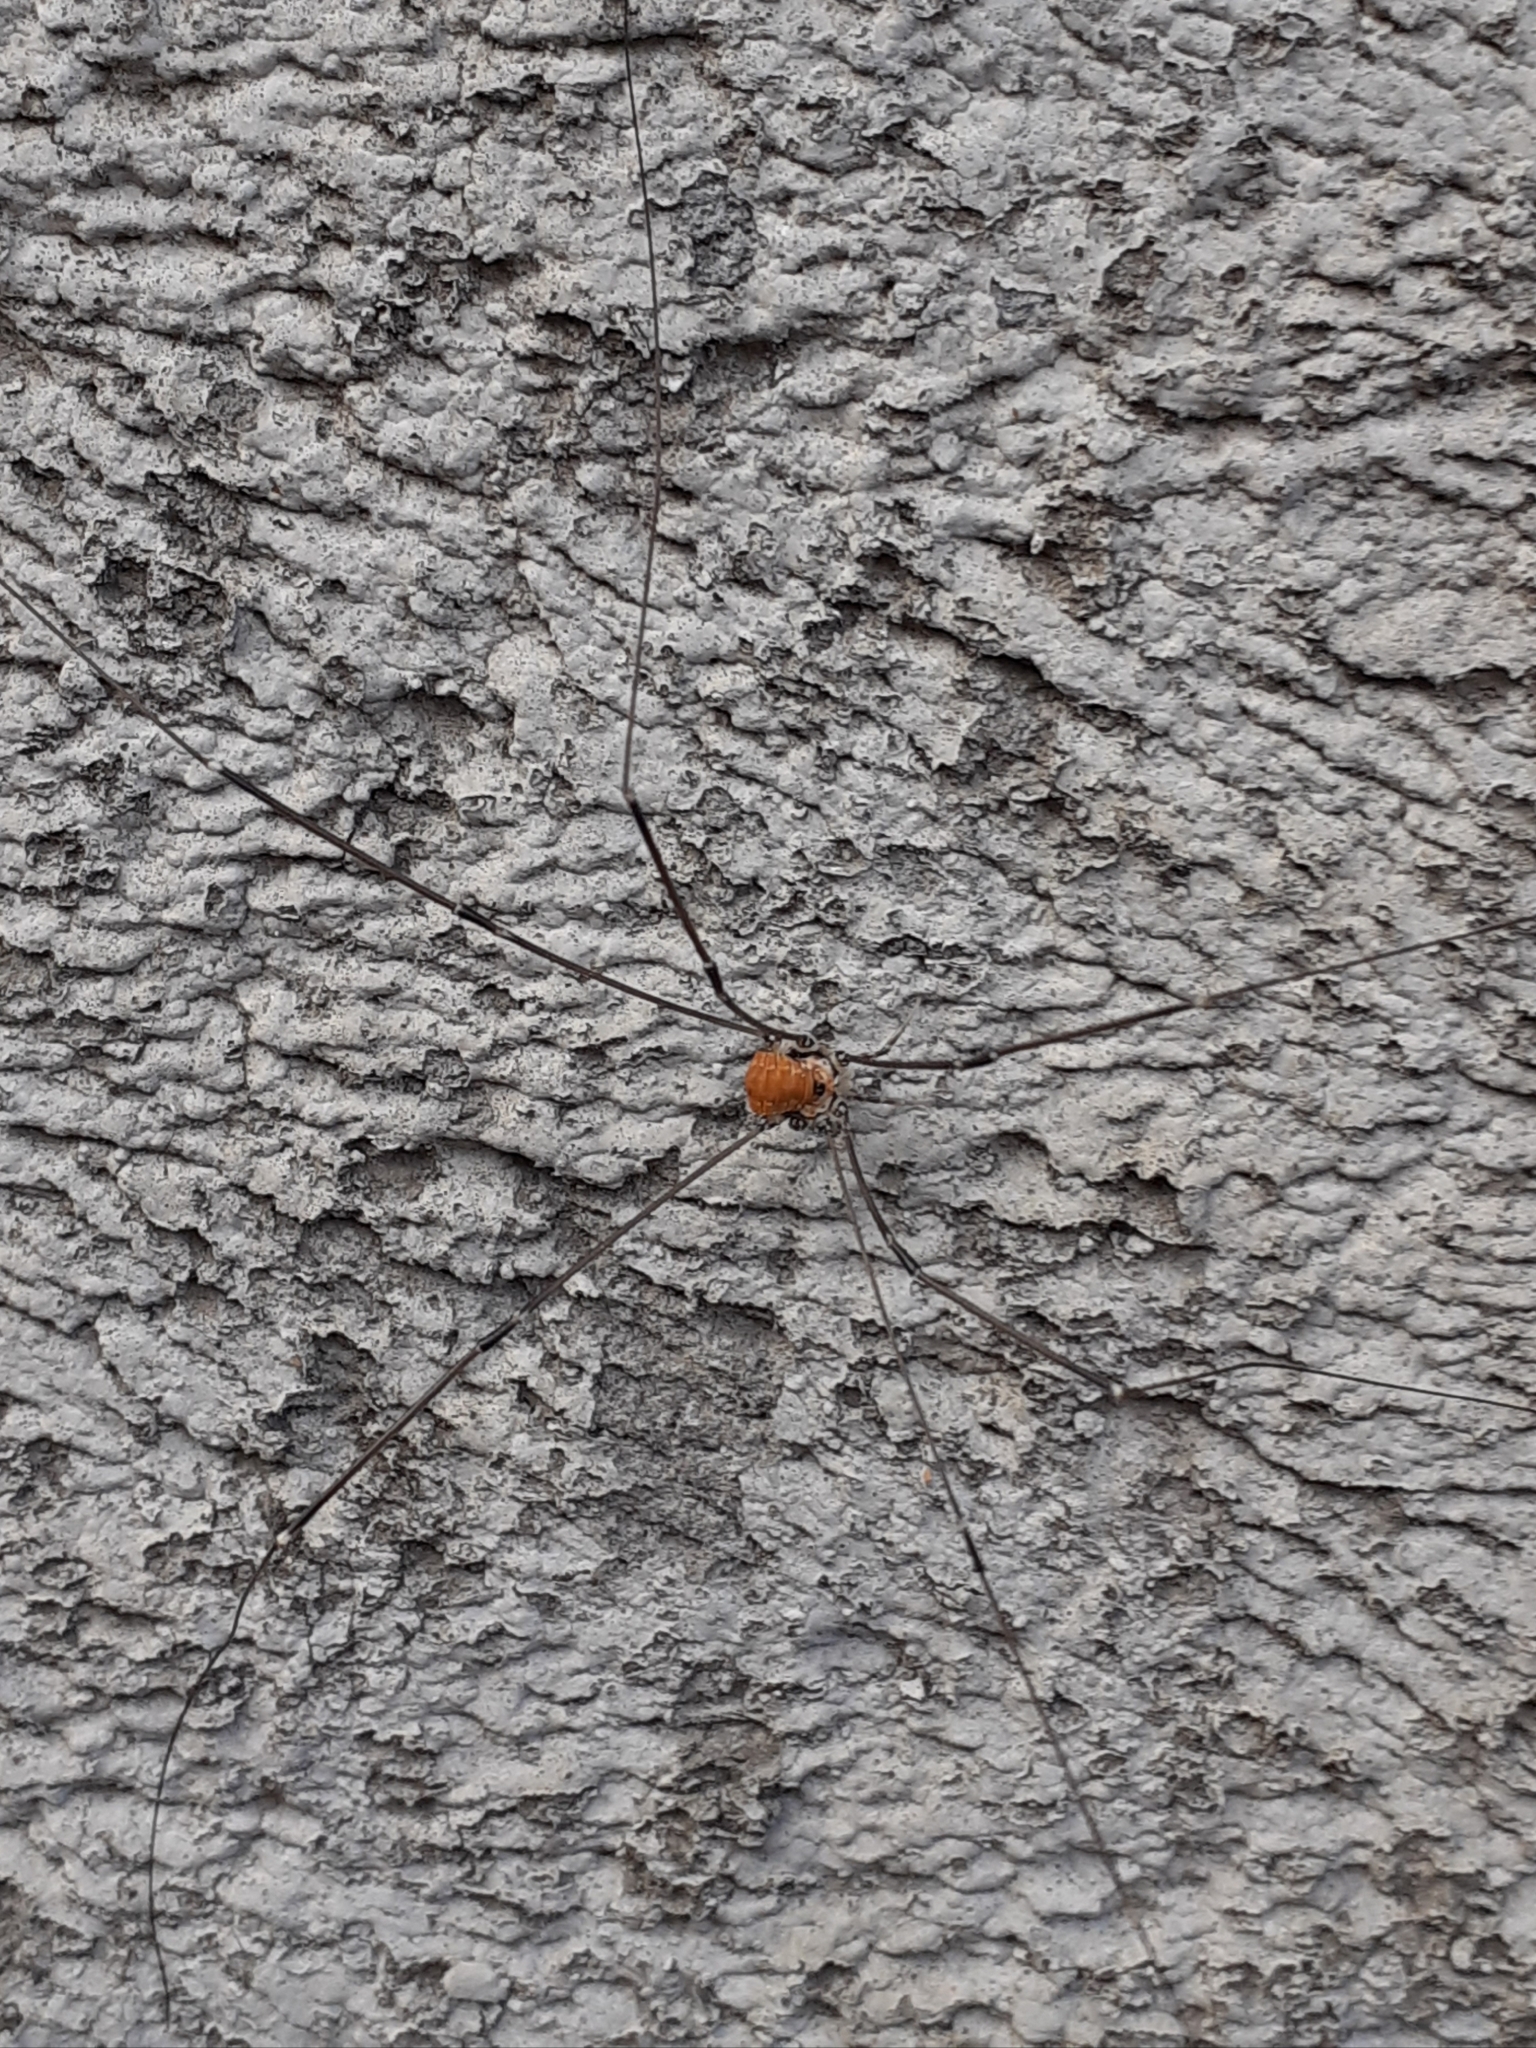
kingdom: Animalia
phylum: Arthropoda
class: Arachnida
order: Opiliones
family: Sclerosomatidae
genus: Leiobunum
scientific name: Leiobunum limbatum
